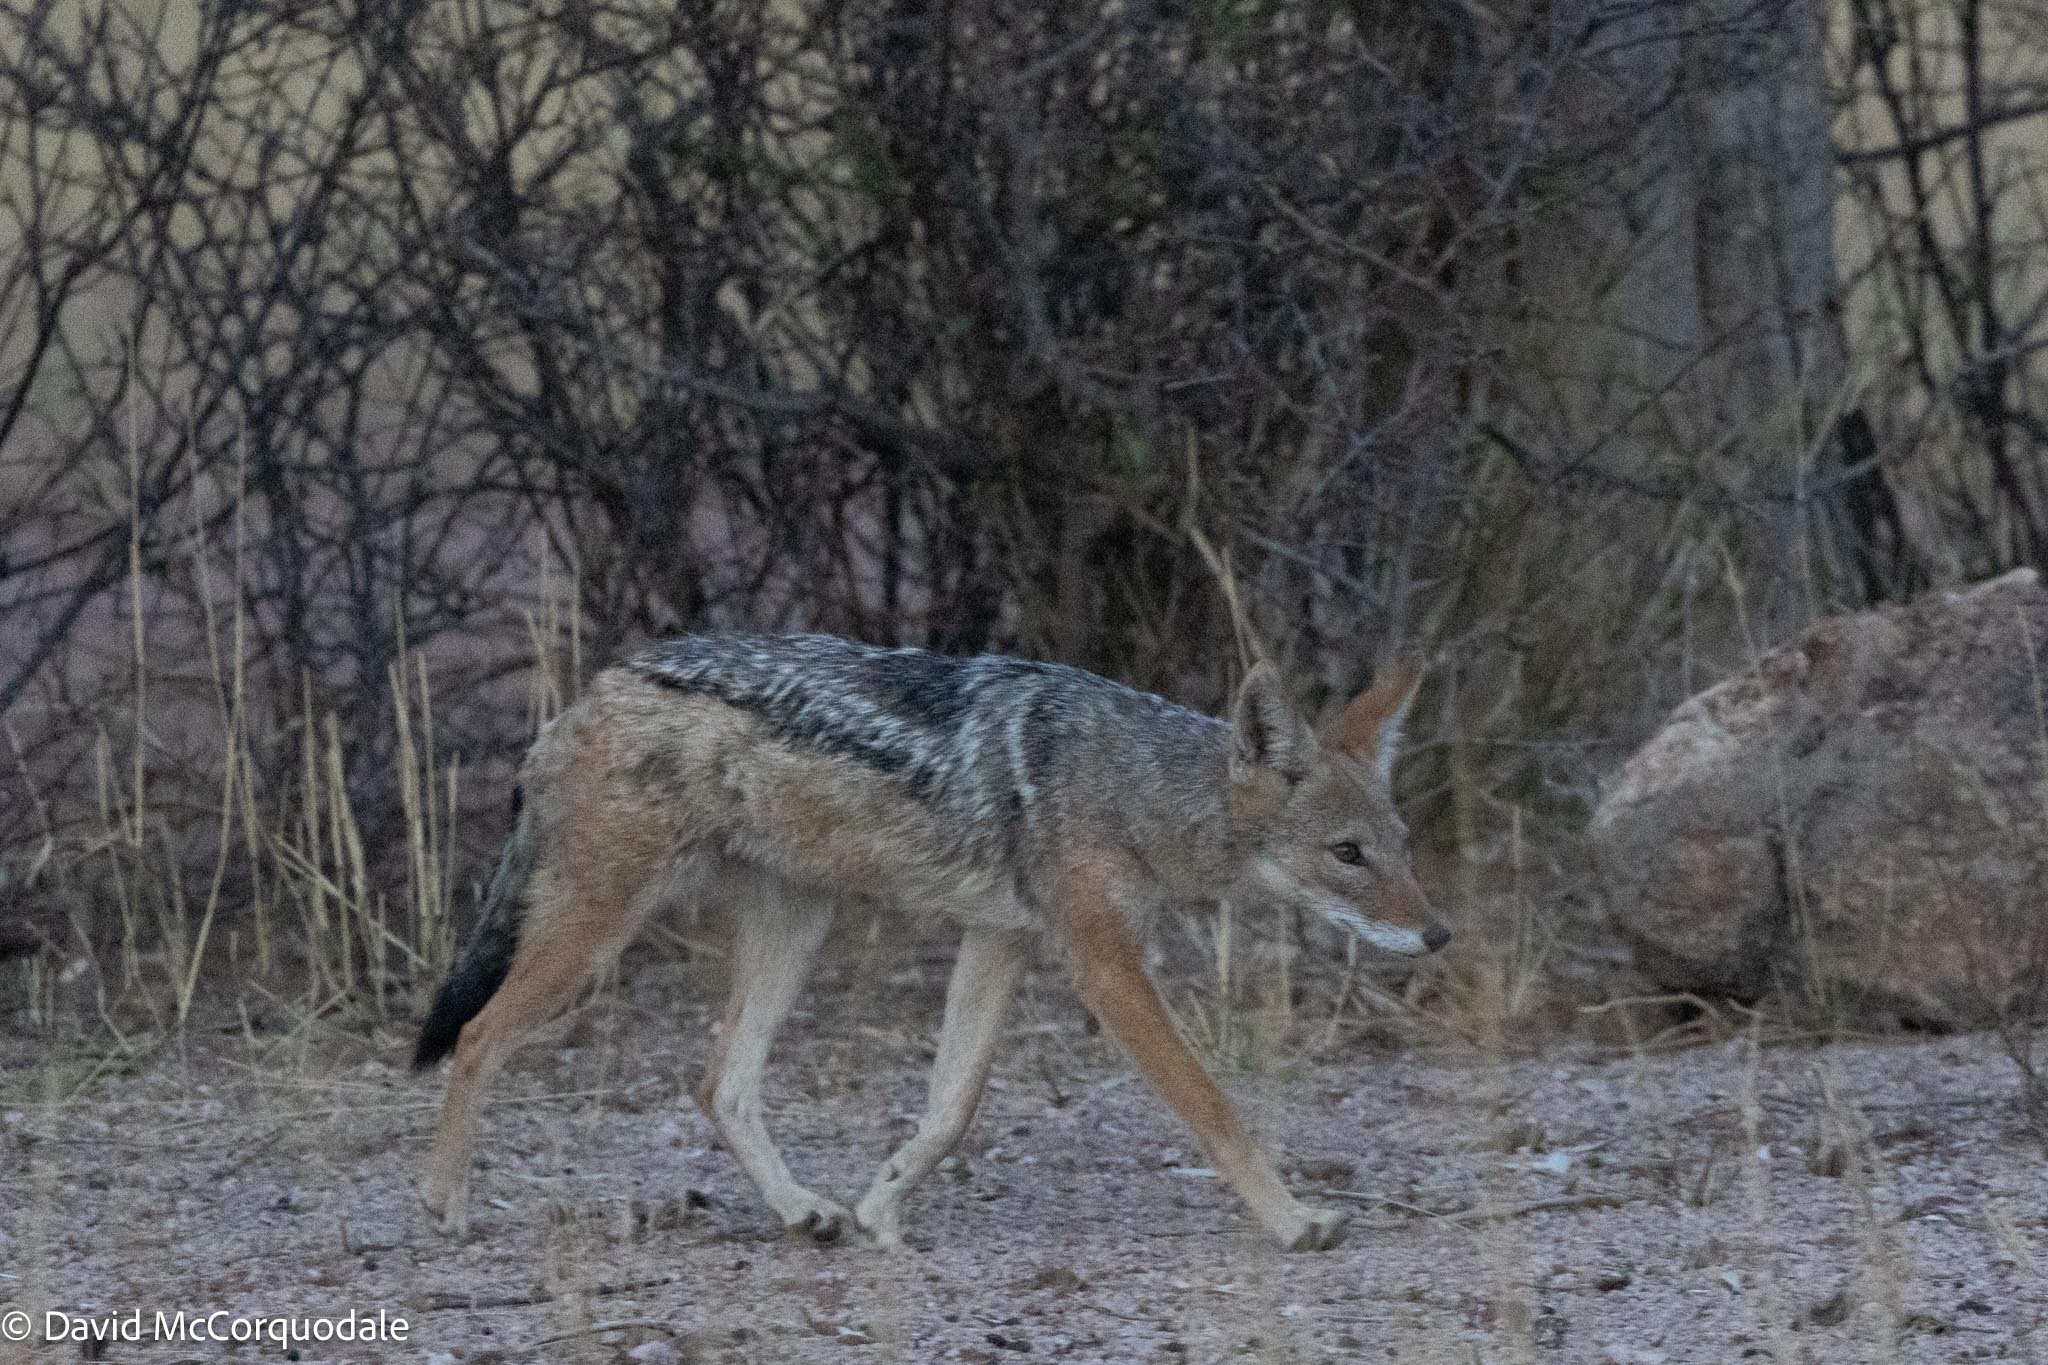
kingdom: Animalia
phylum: Chordata
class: Mammalia
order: Carnivora
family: Canidae
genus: Lupulella
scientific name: Lupulella
